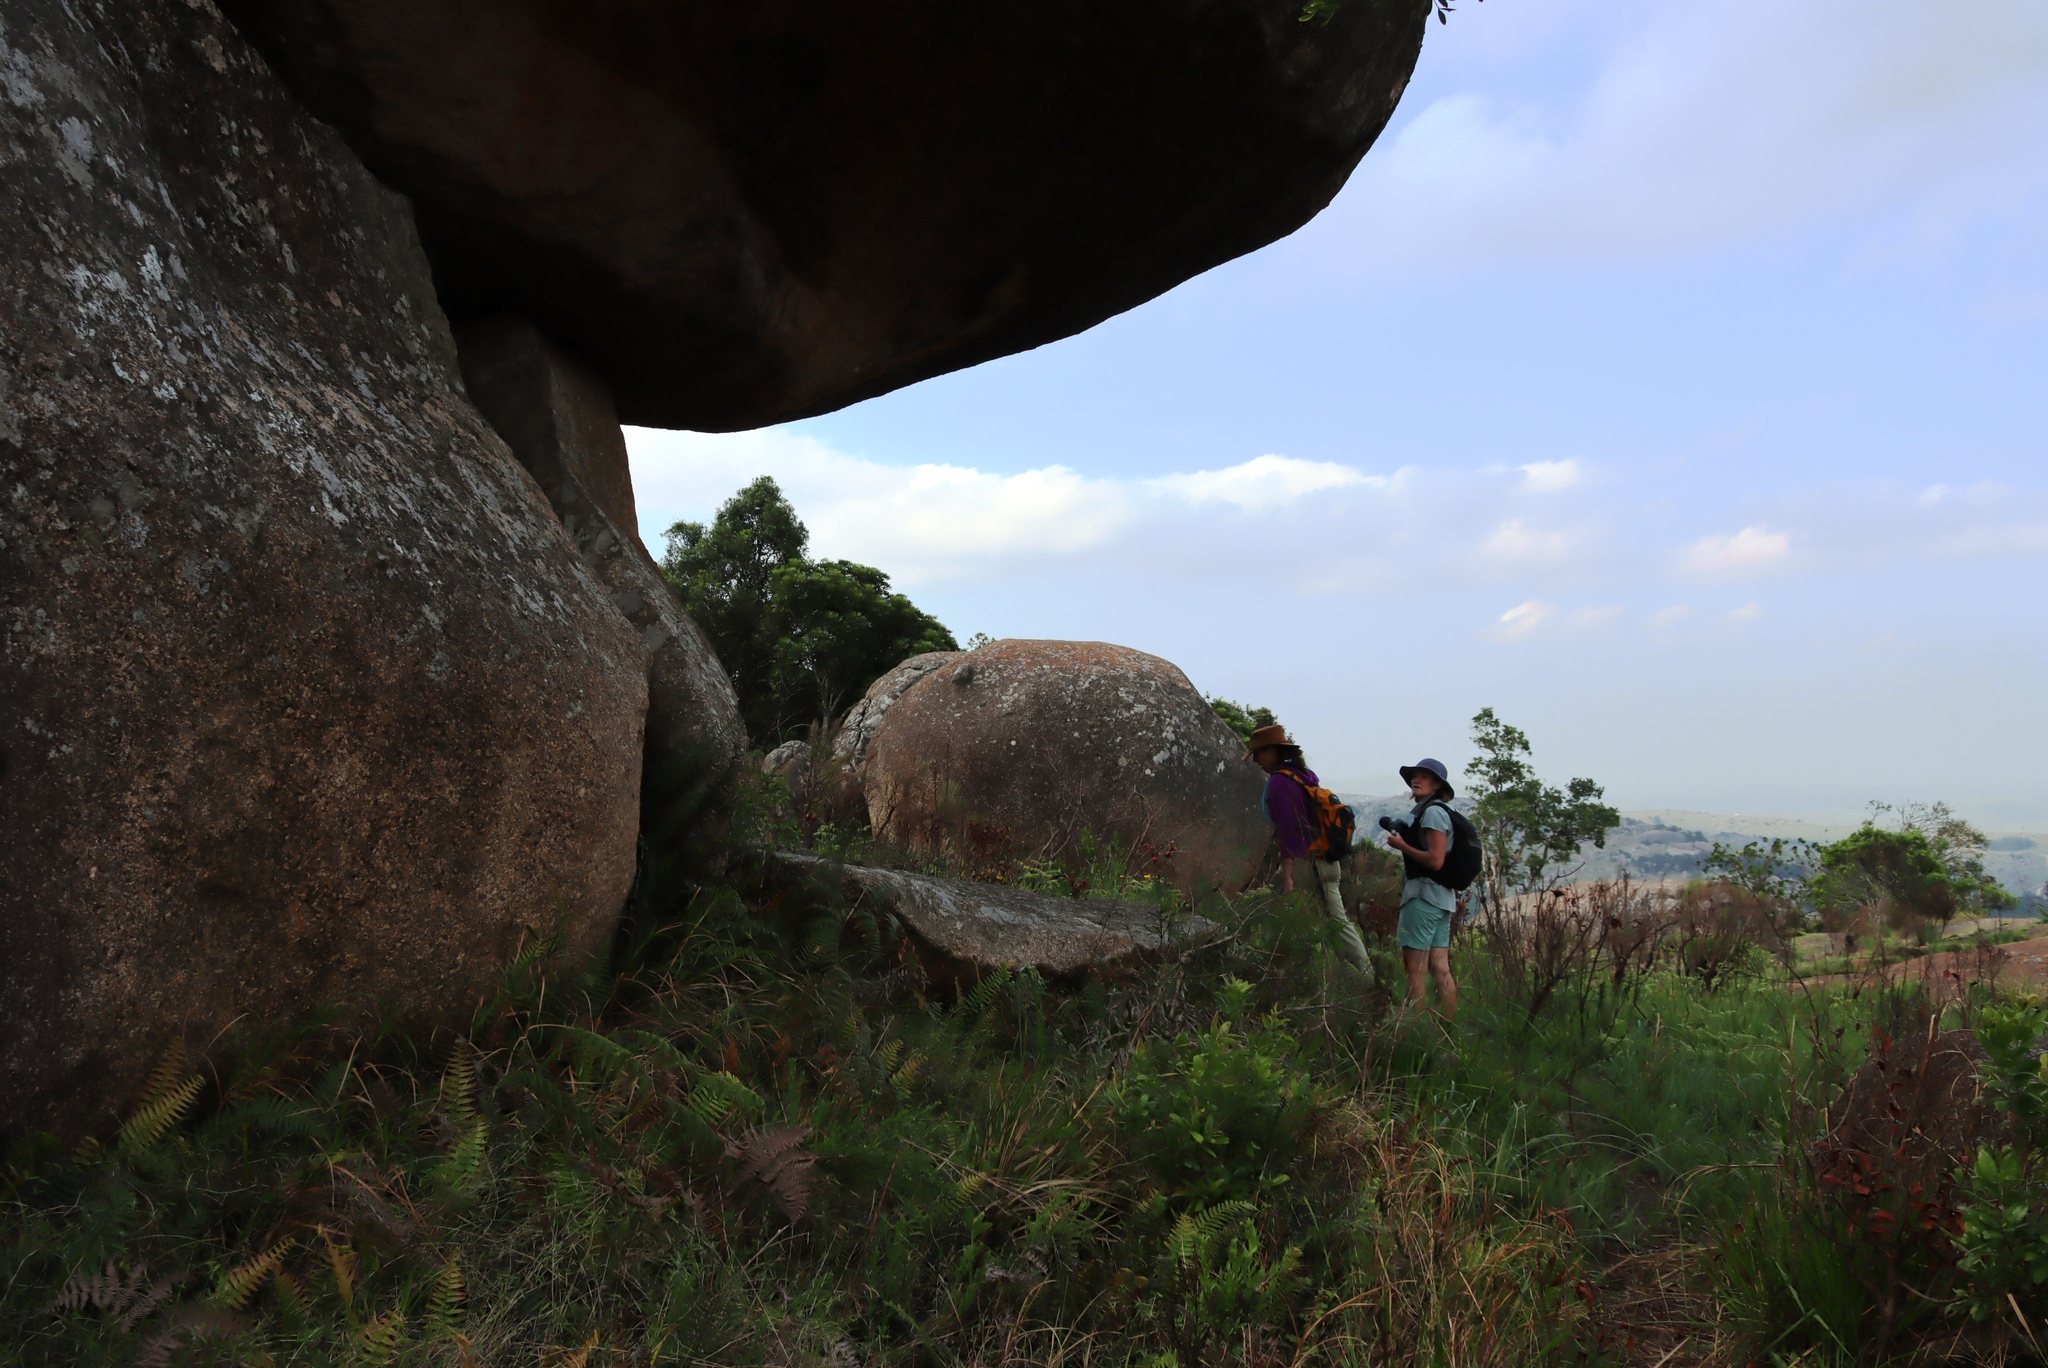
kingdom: Plantae
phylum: Tracheophyta
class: Polypodiopsida
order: Polypodiales
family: Blechnaceae
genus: Lomariocycas
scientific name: Lomariocycas tabularis
